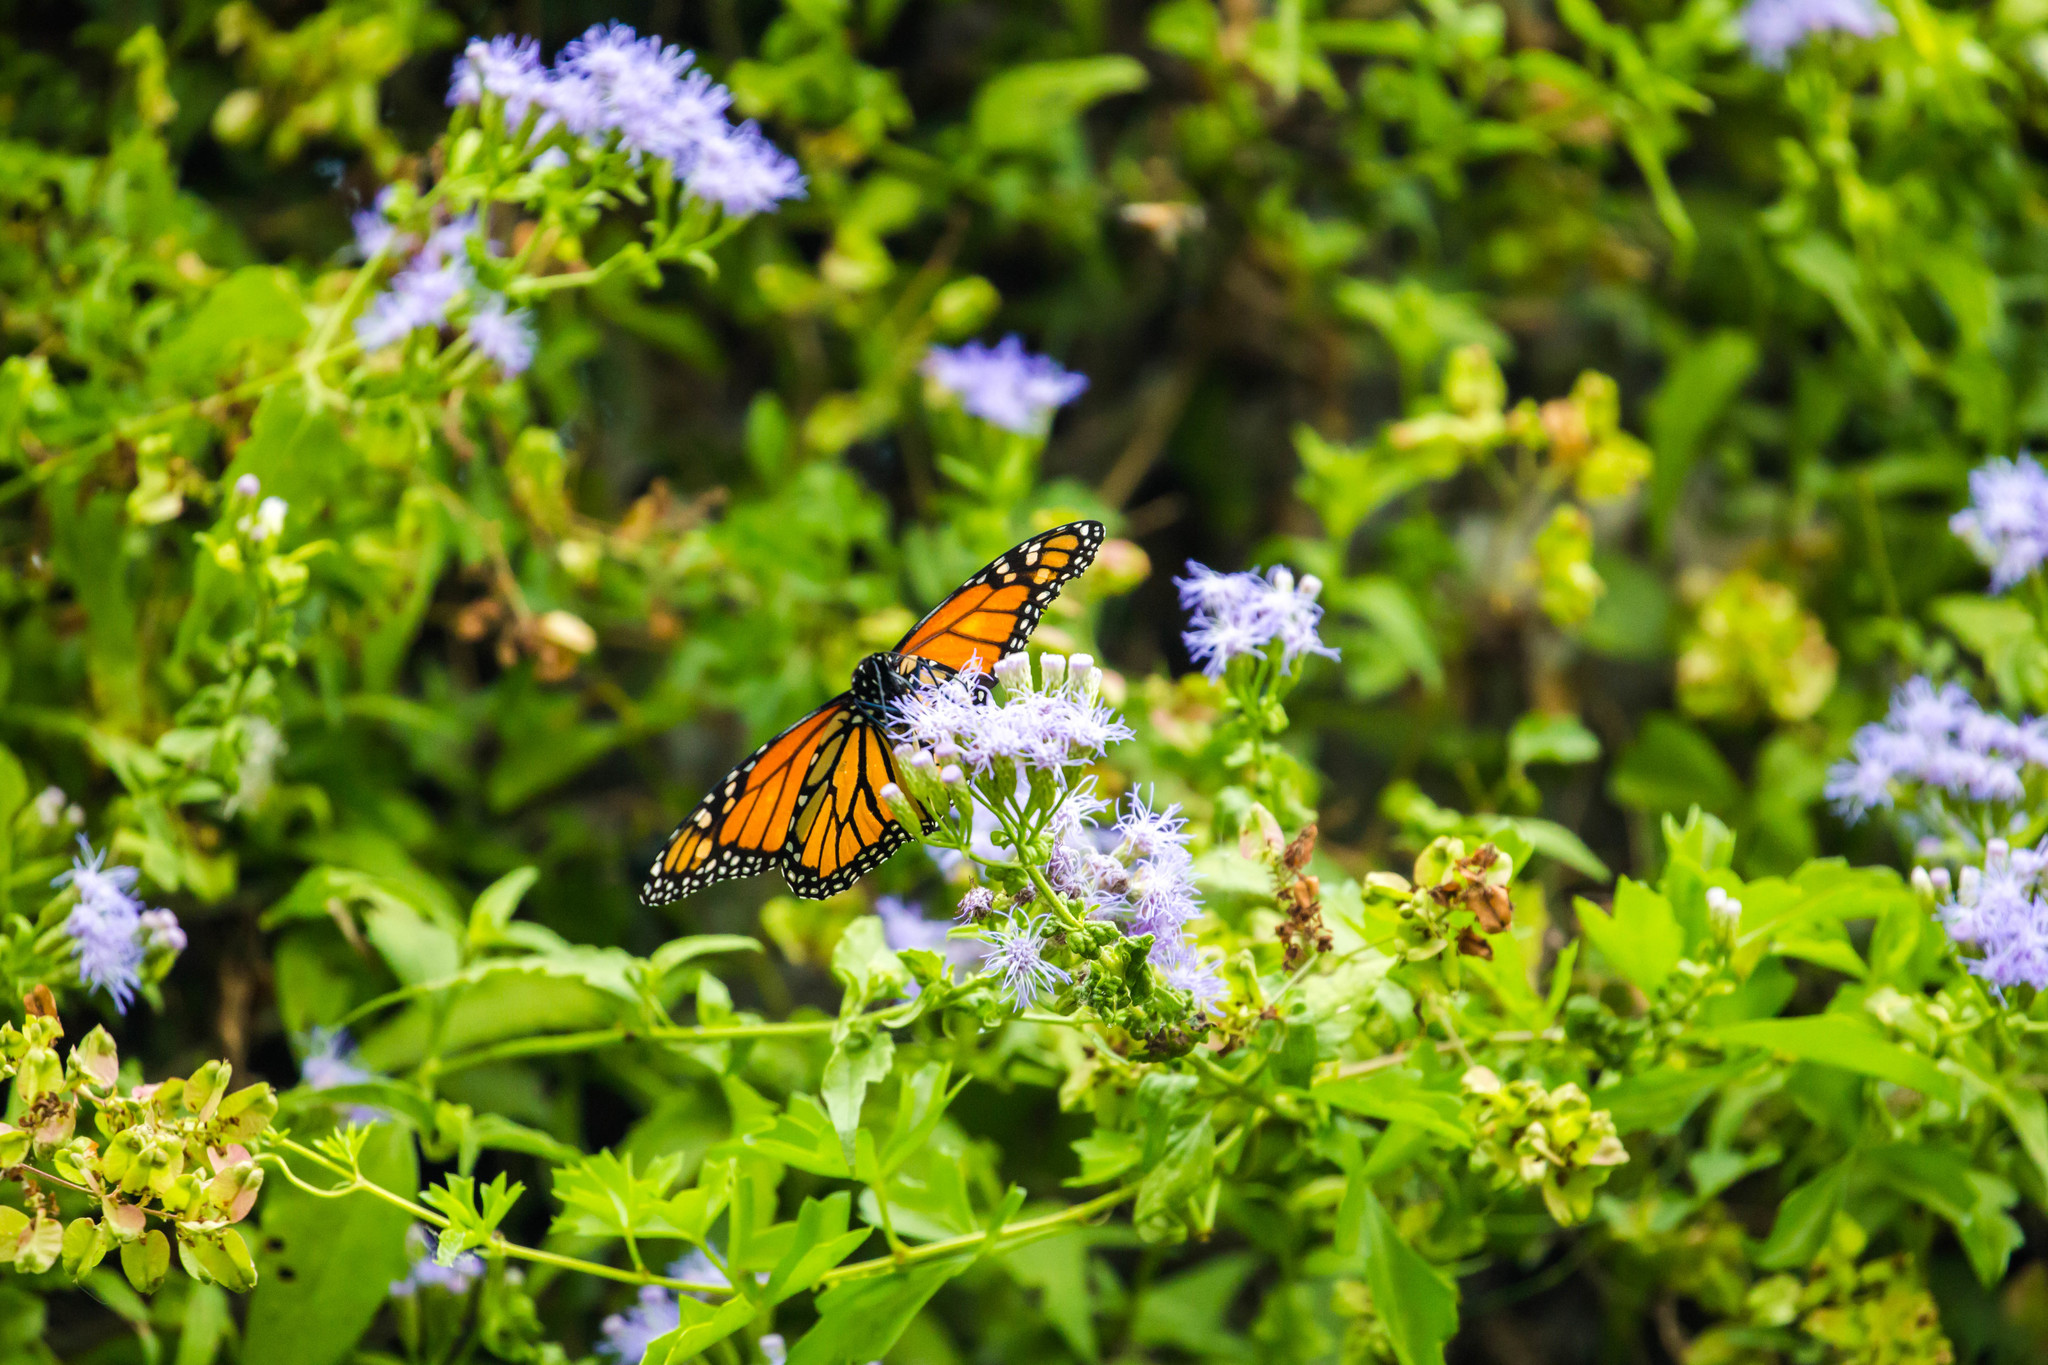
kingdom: Animalia
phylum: Arthropoda
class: Insecta
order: Lepidoptera
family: Nymphalidae
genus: Danaus
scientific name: Danaus plexippus
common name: Monarch
